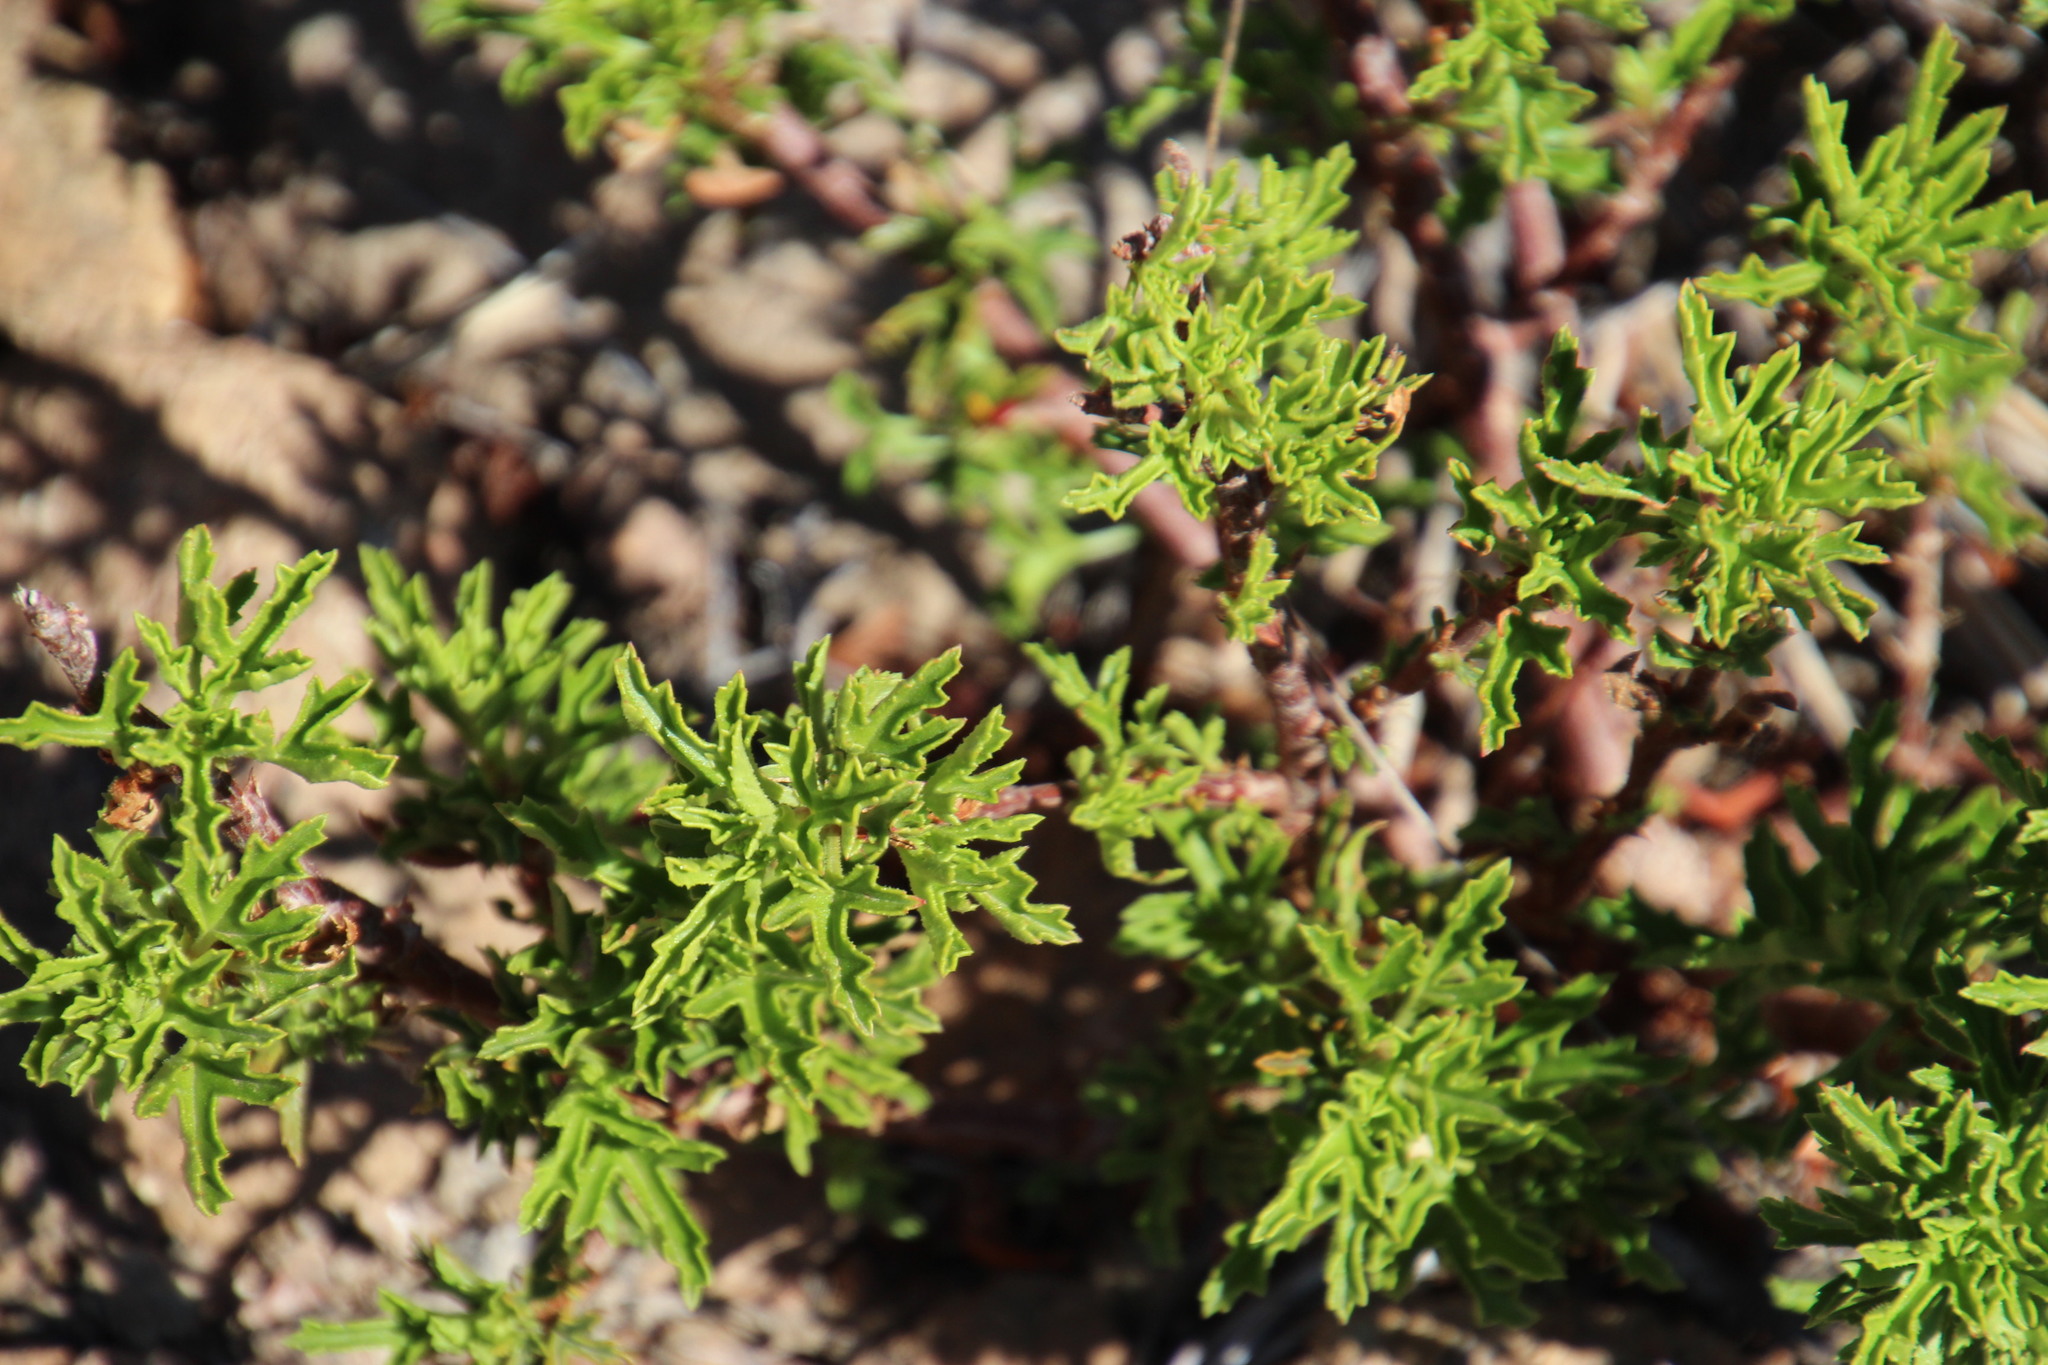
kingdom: Plantae
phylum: Tracheophyta
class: Magnoliopsida
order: Geraniales
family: Geraniaceae
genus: Pelargonium
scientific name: Pelargonium scabrum
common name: Apricot geranium
